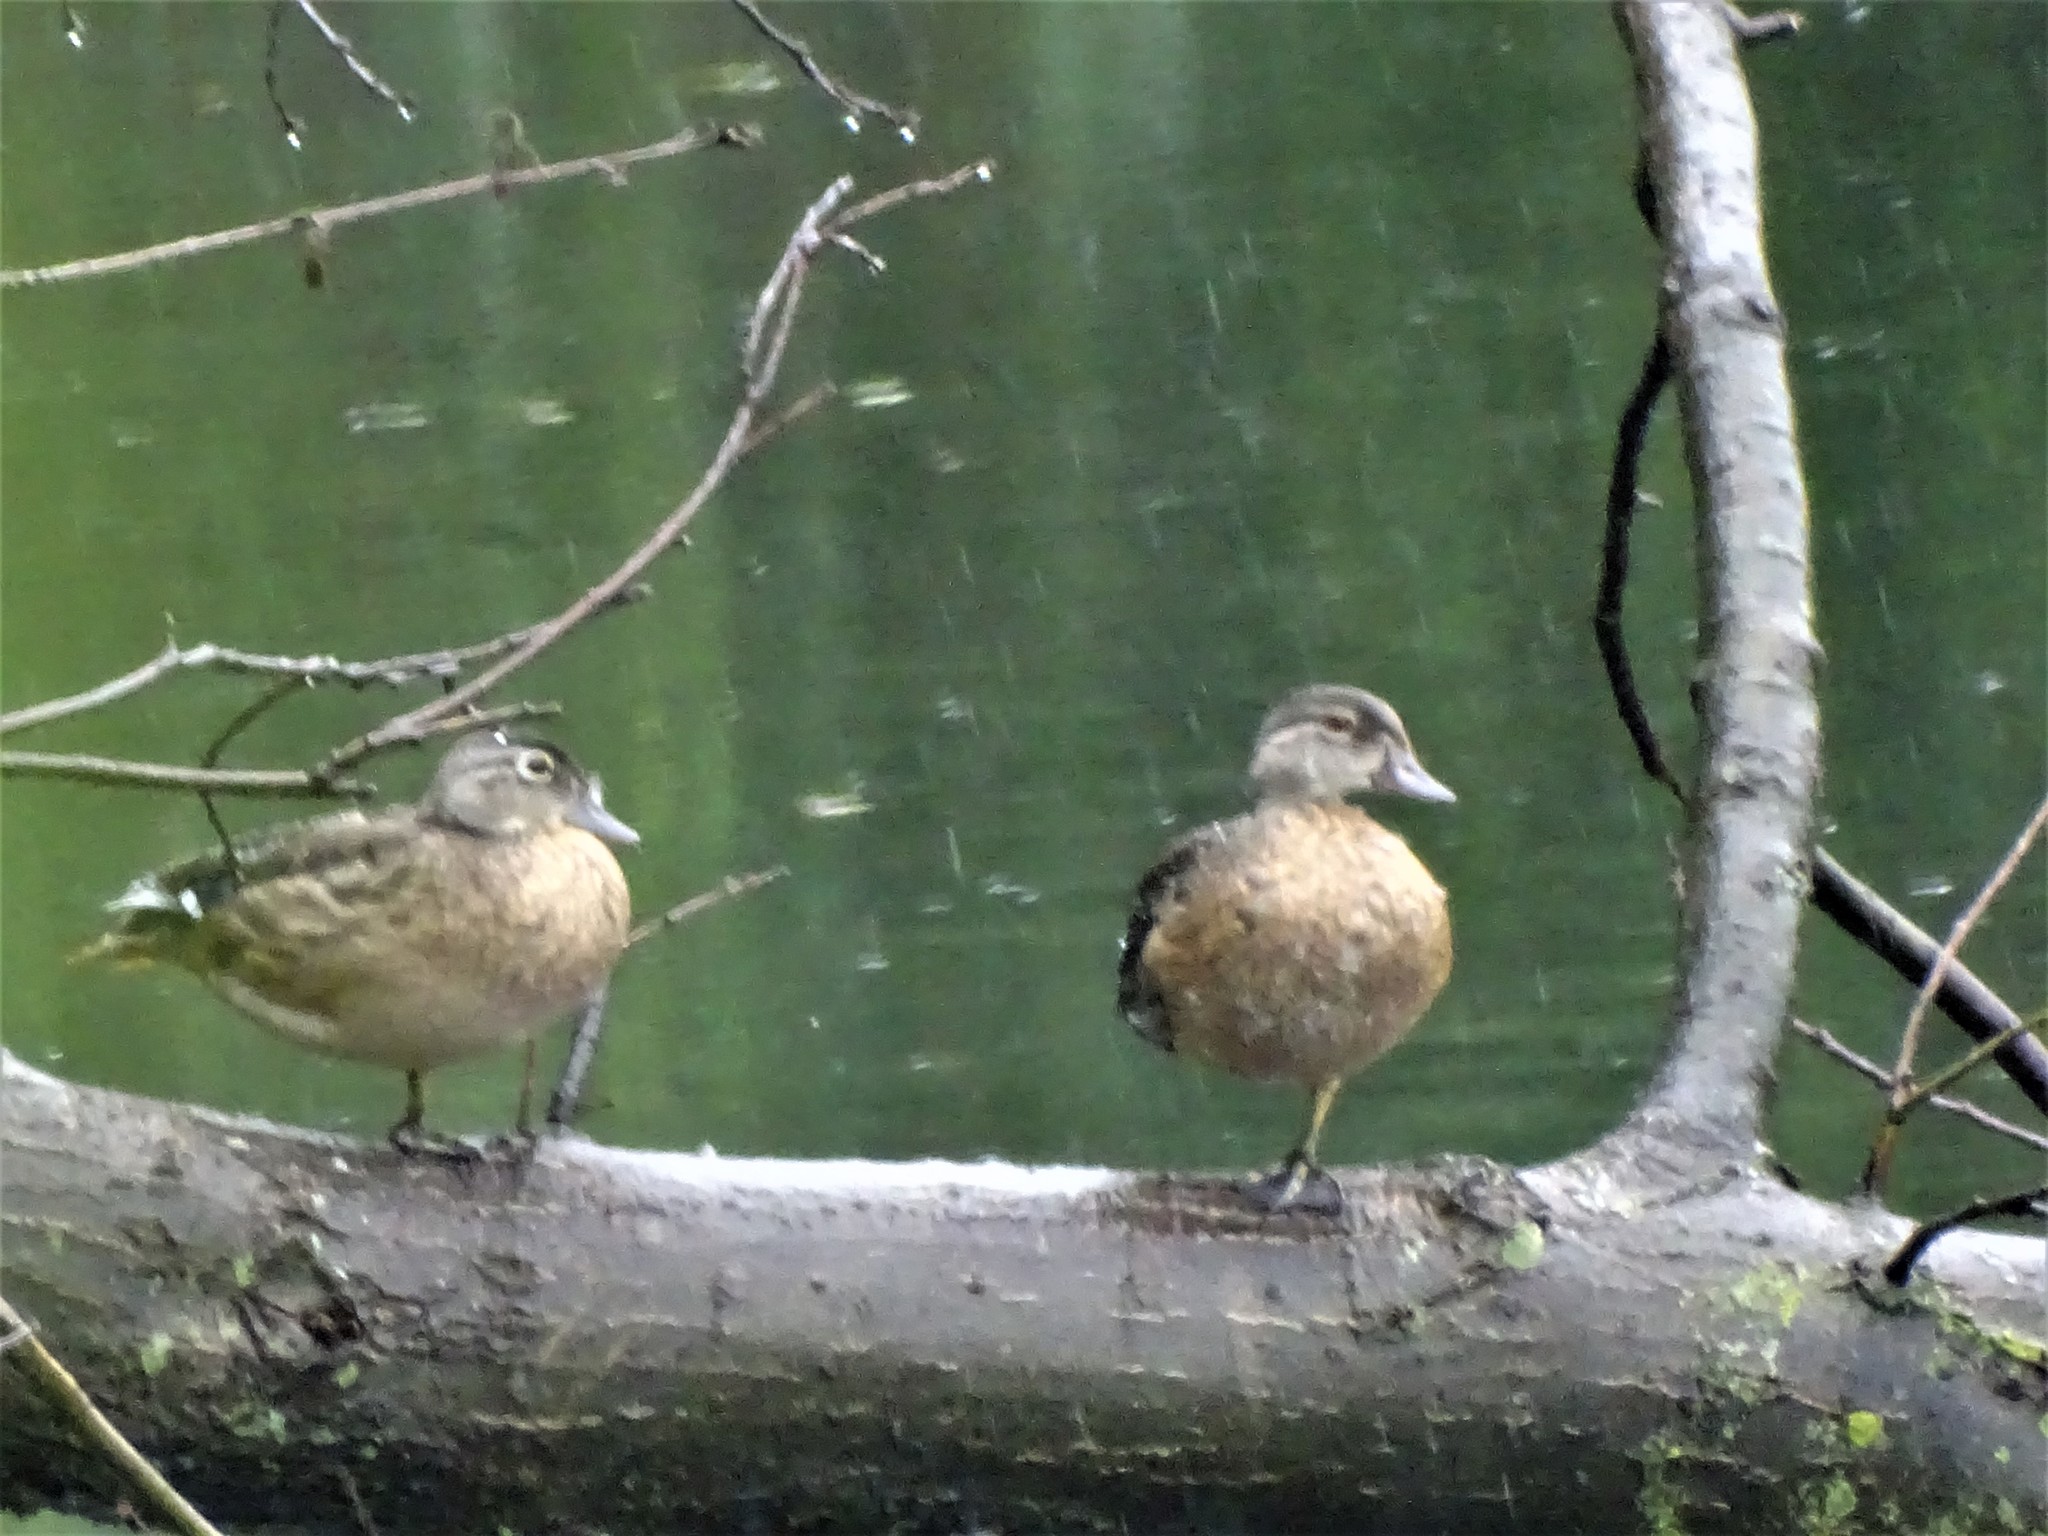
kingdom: Animalia
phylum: Chordata
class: Aves
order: Anseriformes
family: Anatidae
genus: Aix
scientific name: Aix sponsa
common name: Wood duck
